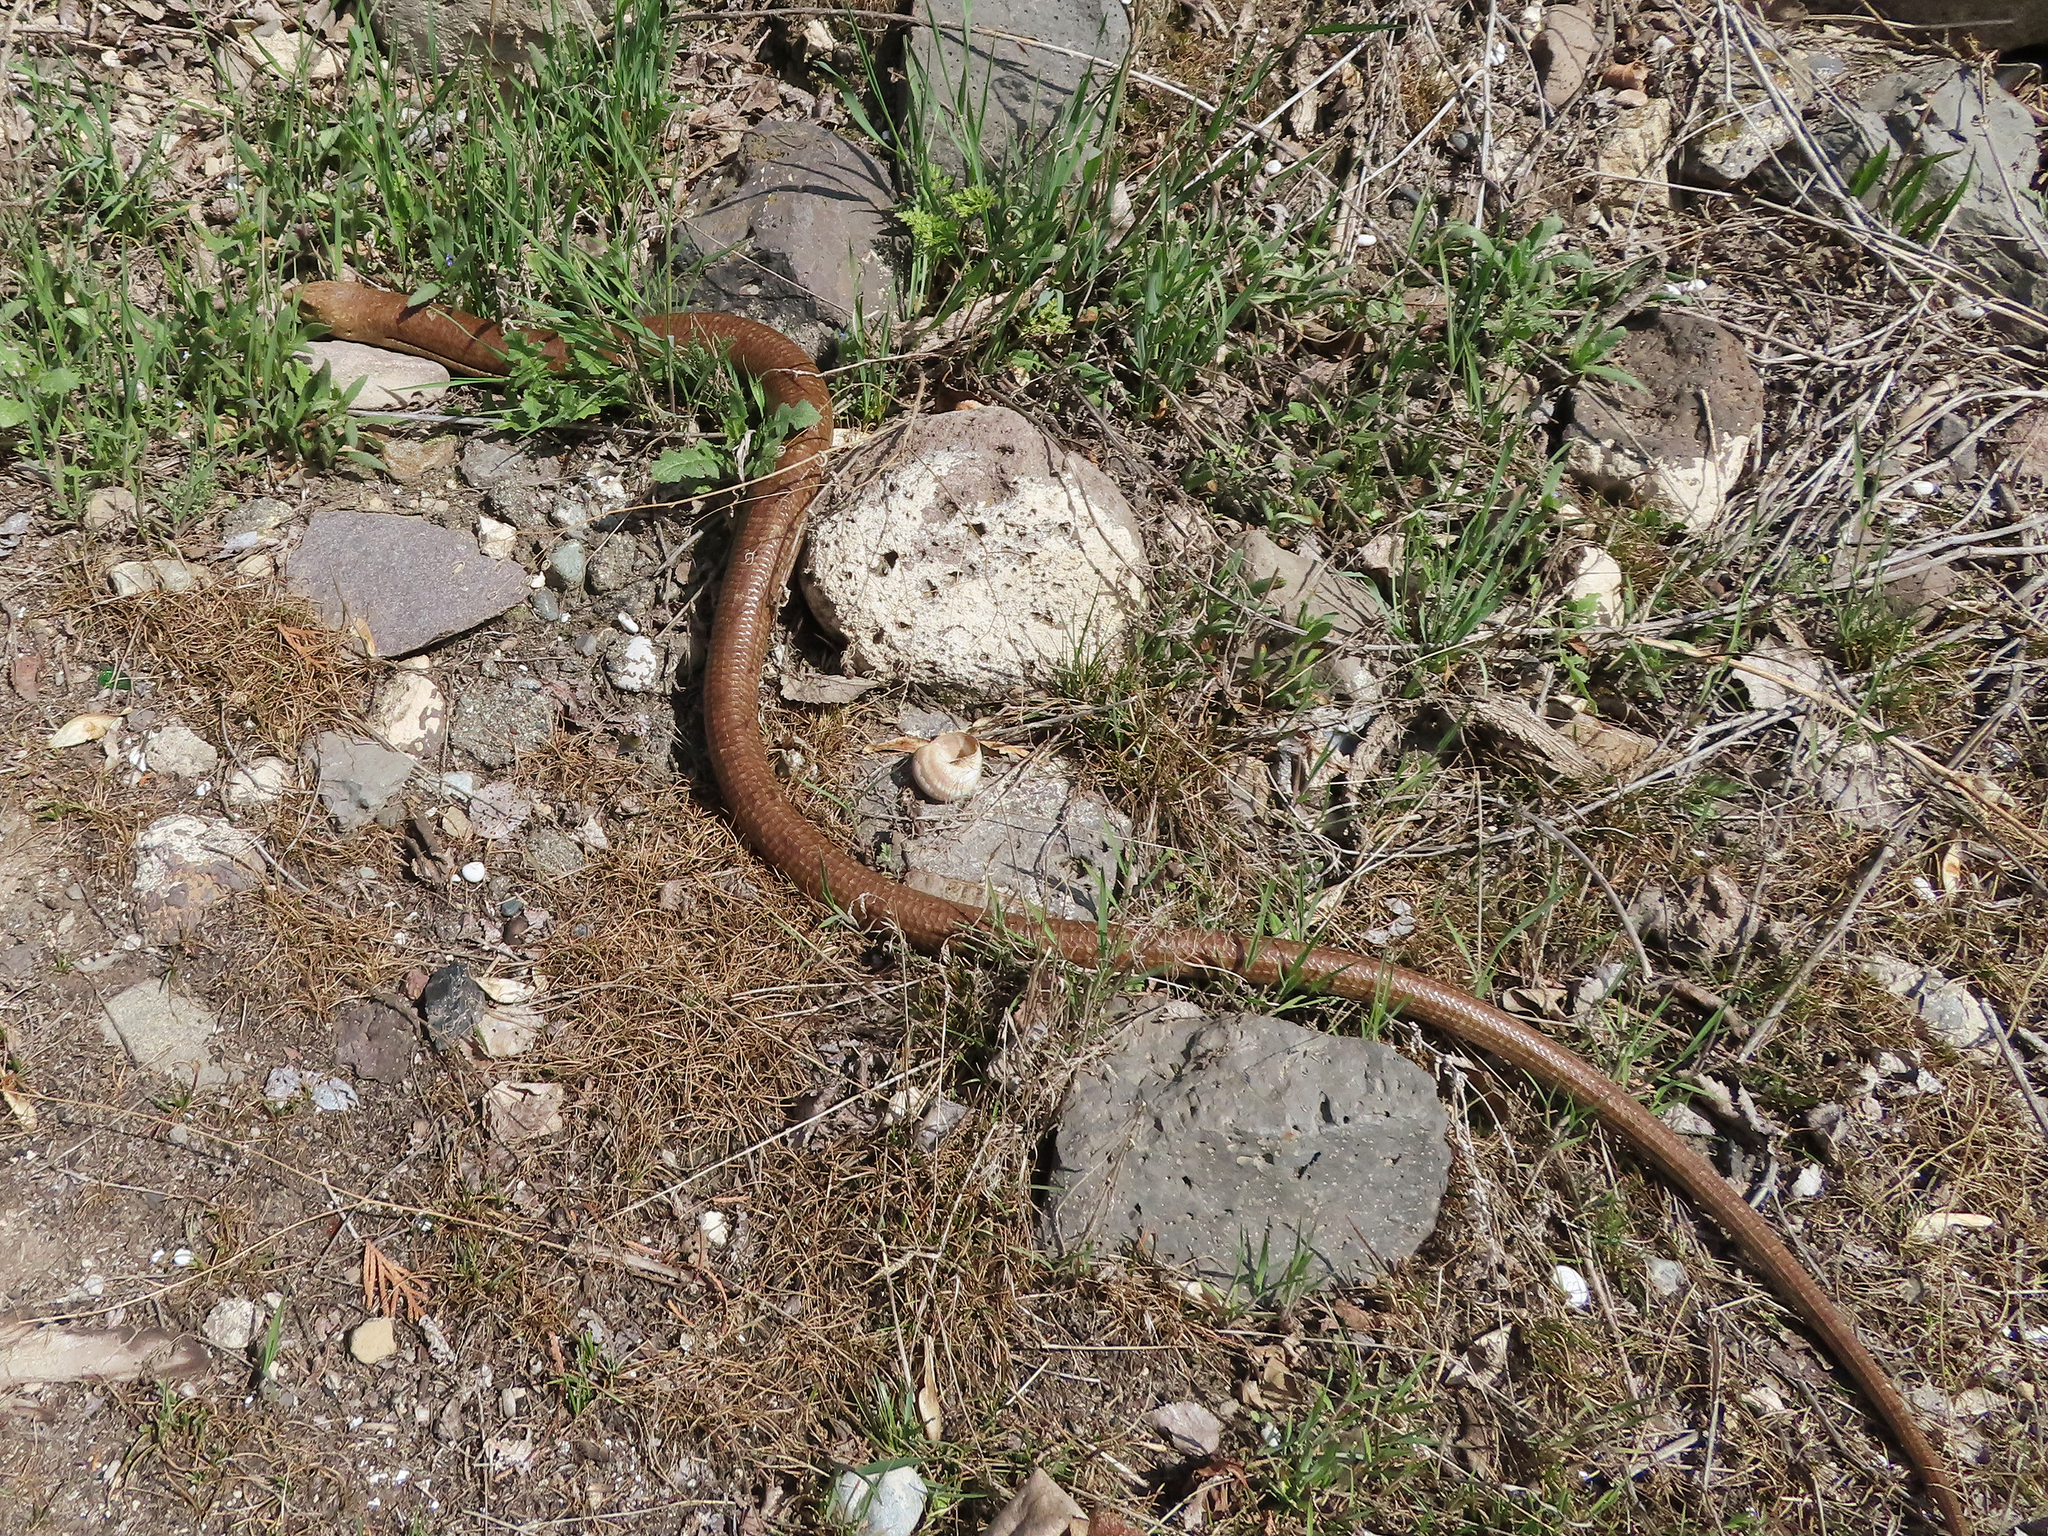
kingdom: Animalia
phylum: Chordata
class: Squamata
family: Anguidae
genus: Pseudopus
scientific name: Pseudopus apodus
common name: European glass lizard
